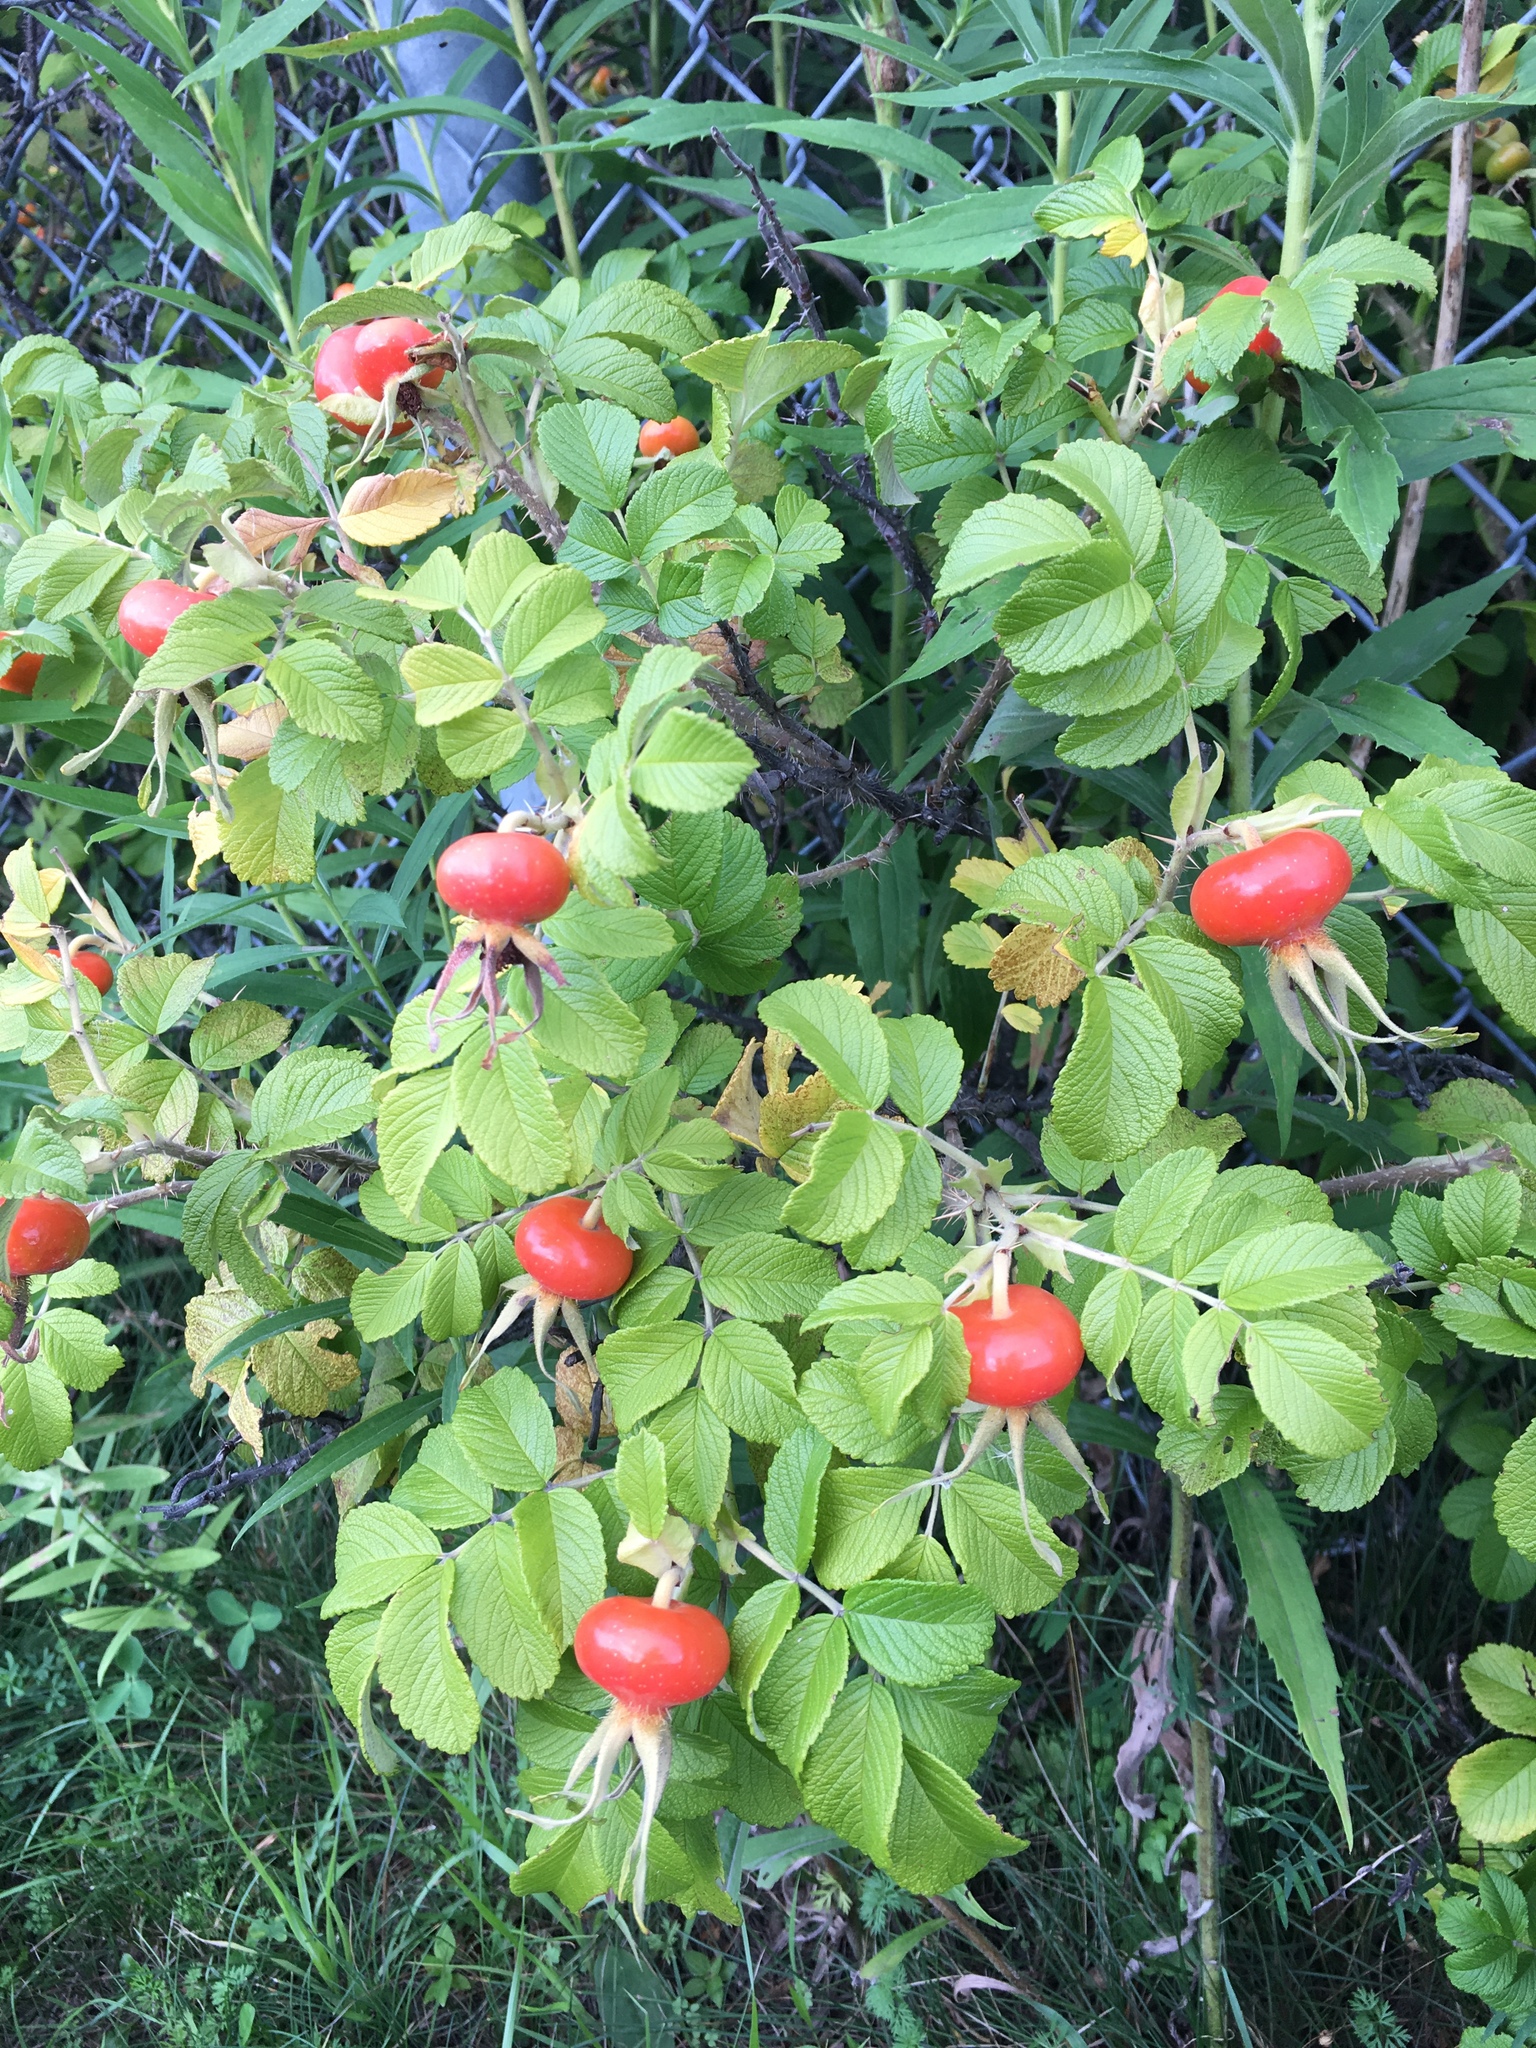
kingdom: Plantae
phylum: Tracheophyta
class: Magnoliopsida
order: Rosales
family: Rosaceae
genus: Rosa
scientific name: Rosa rugosa
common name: Japanese rose
